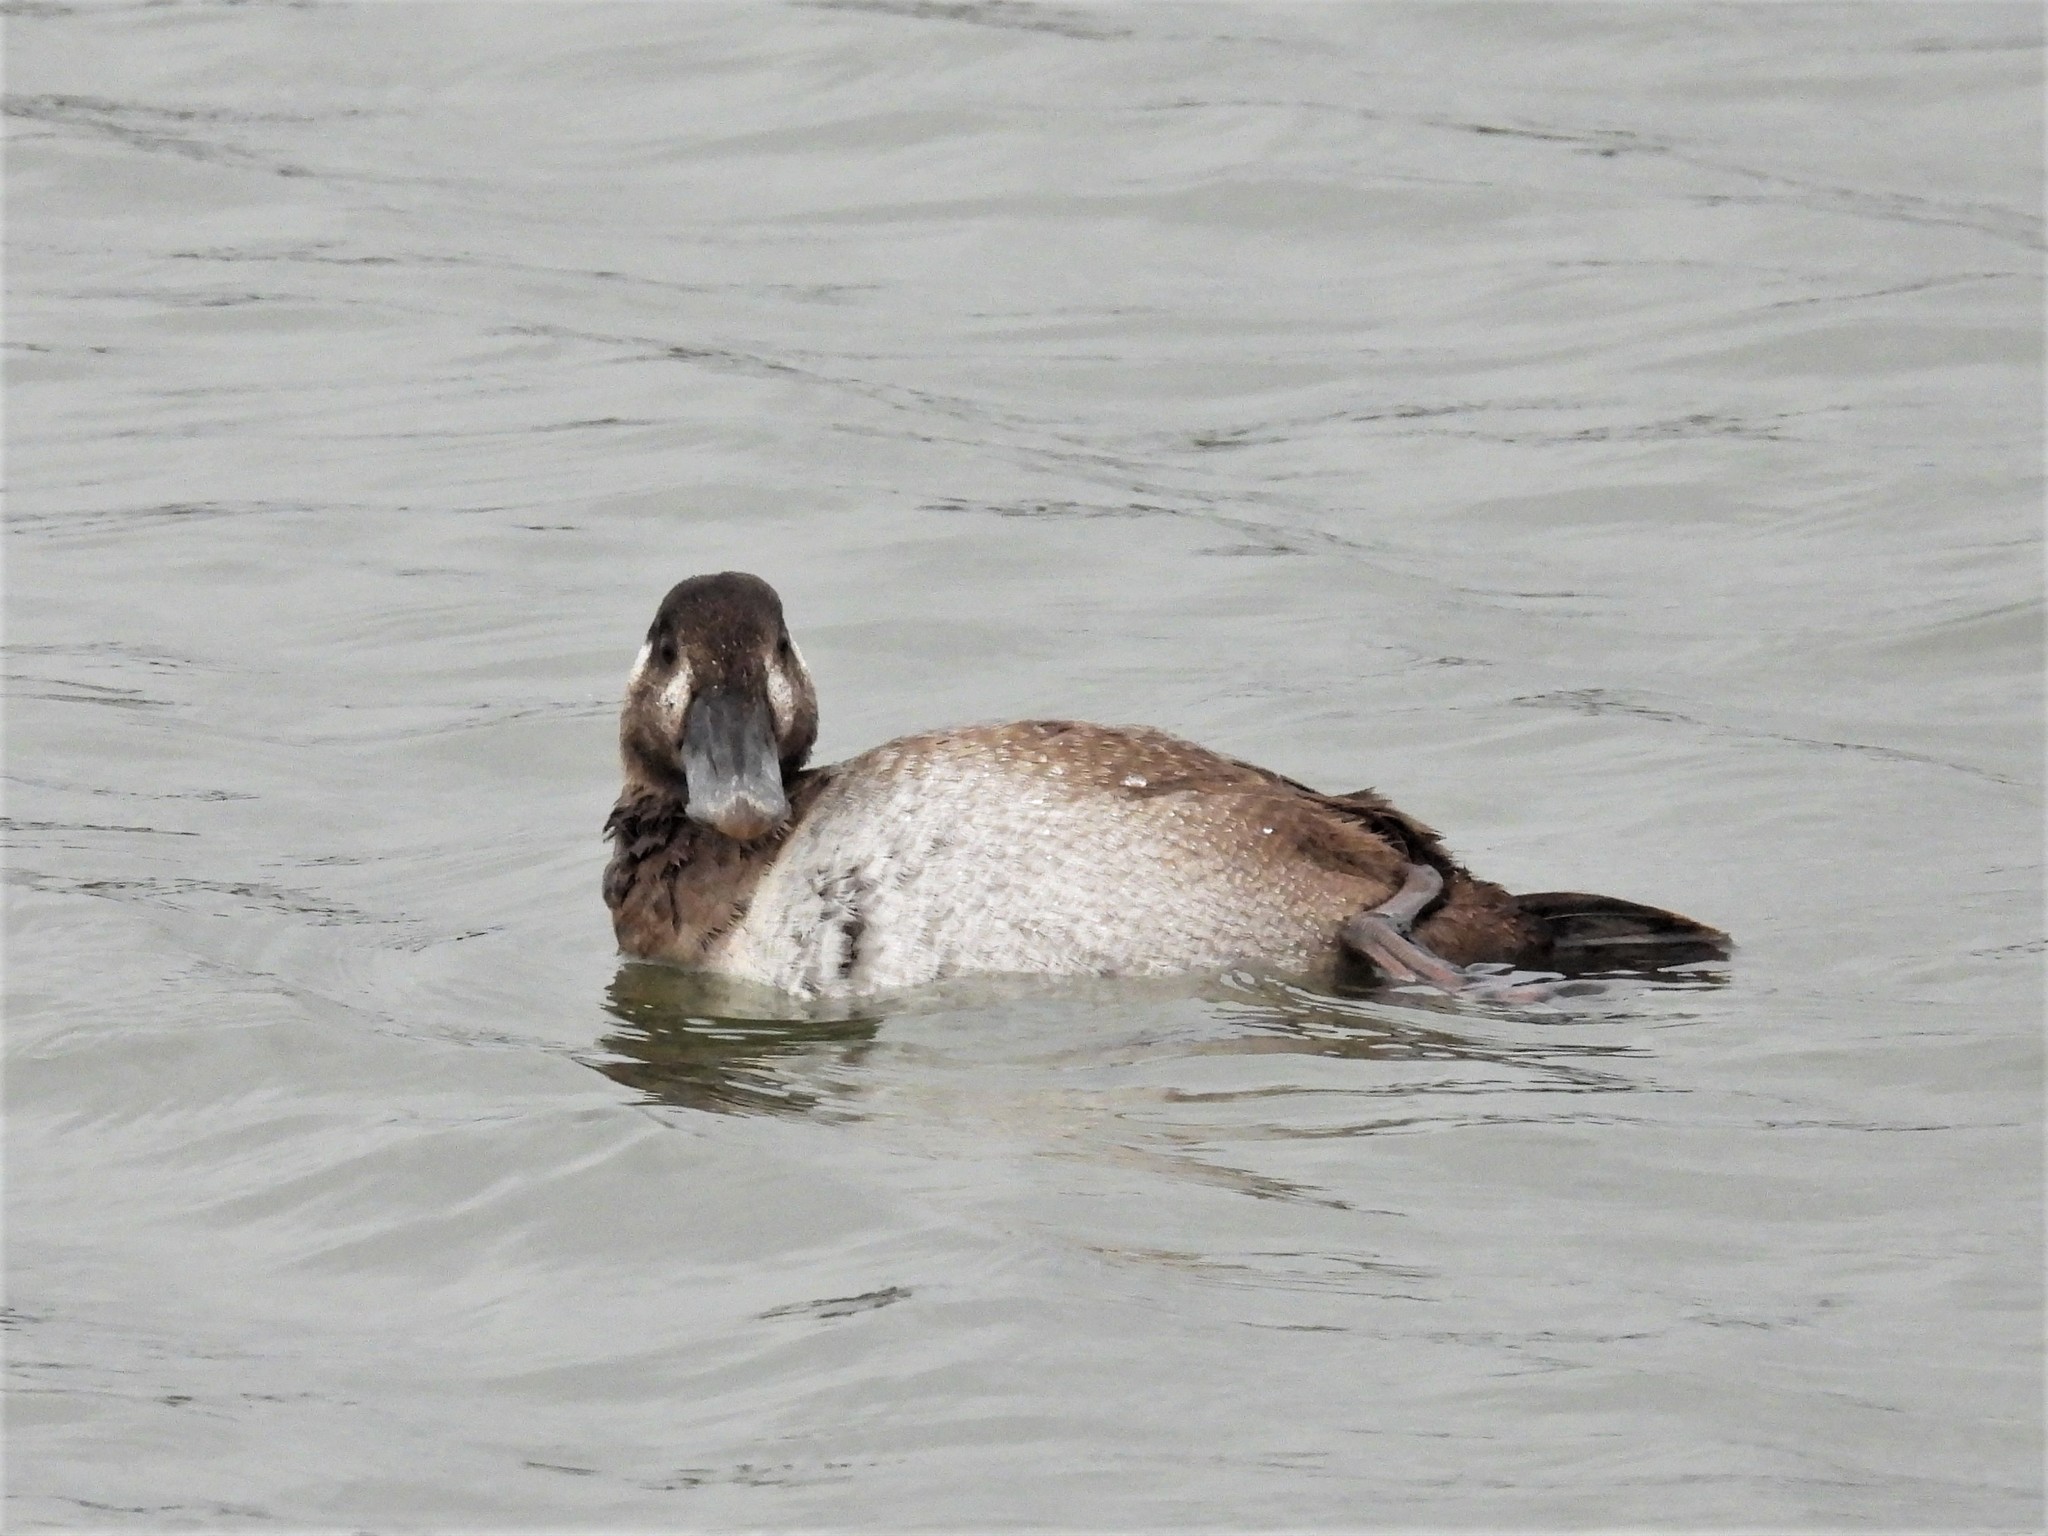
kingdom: Animalia
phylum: Chordata
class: Aves
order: Anseriformes
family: Anatidae
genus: Melanitta
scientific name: Melanitta perspicillata
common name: Surf scoter
